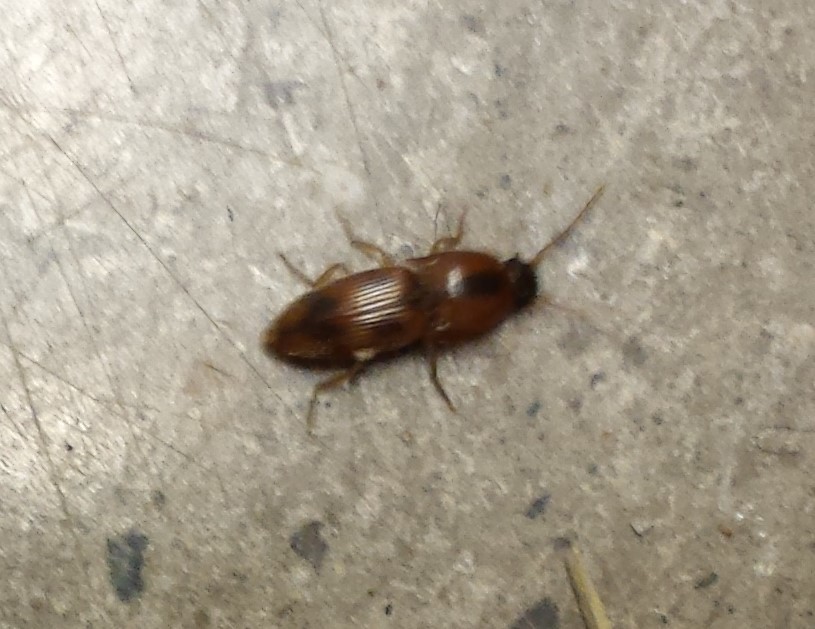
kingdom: Animalia
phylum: Arthropoda
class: Insecta
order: Coleoptera
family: Elateridae
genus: Aeolus
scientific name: Aeolus mellillus
